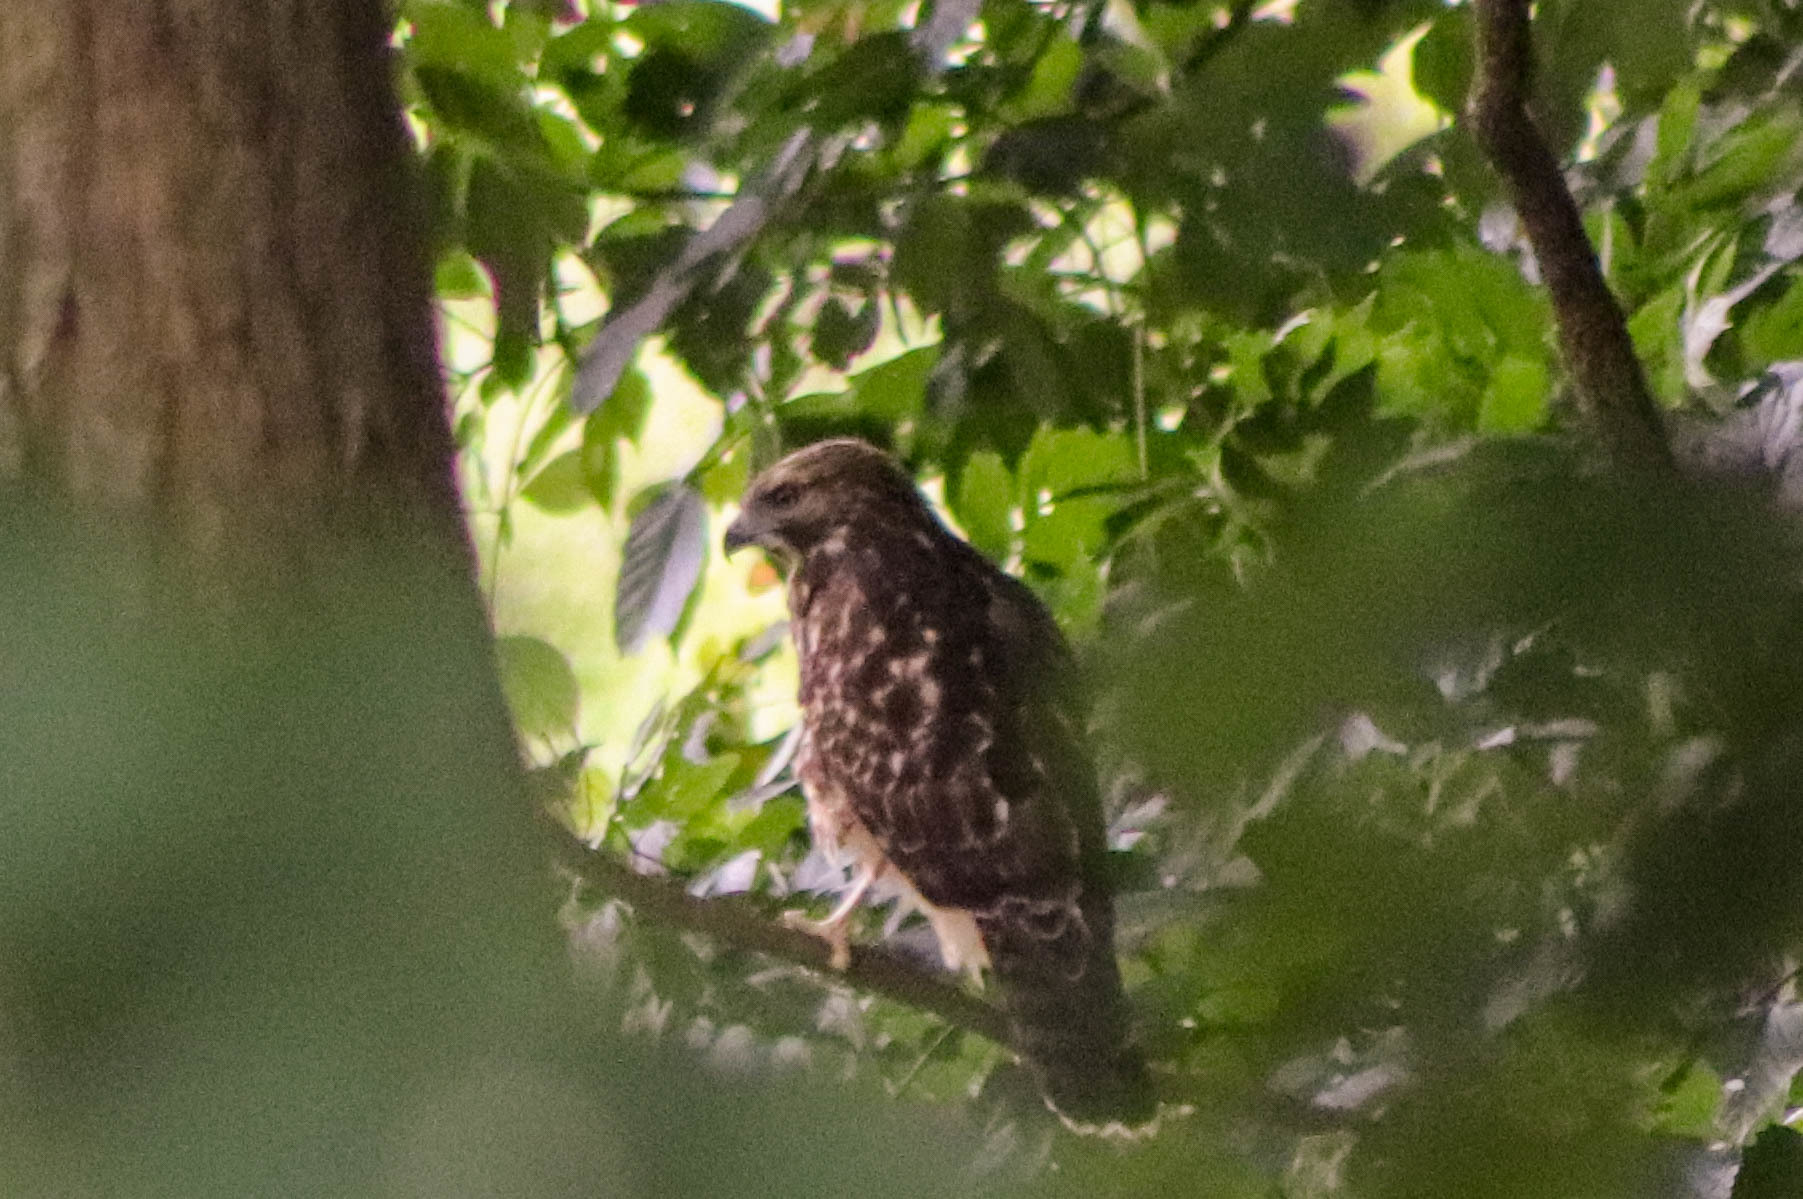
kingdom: Animalia
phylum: Chordata
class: Aves
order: Accipitriformes
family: Accipitridae
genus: Buteo
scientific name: Buteo lineatus
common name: Red-shouldered hawk
